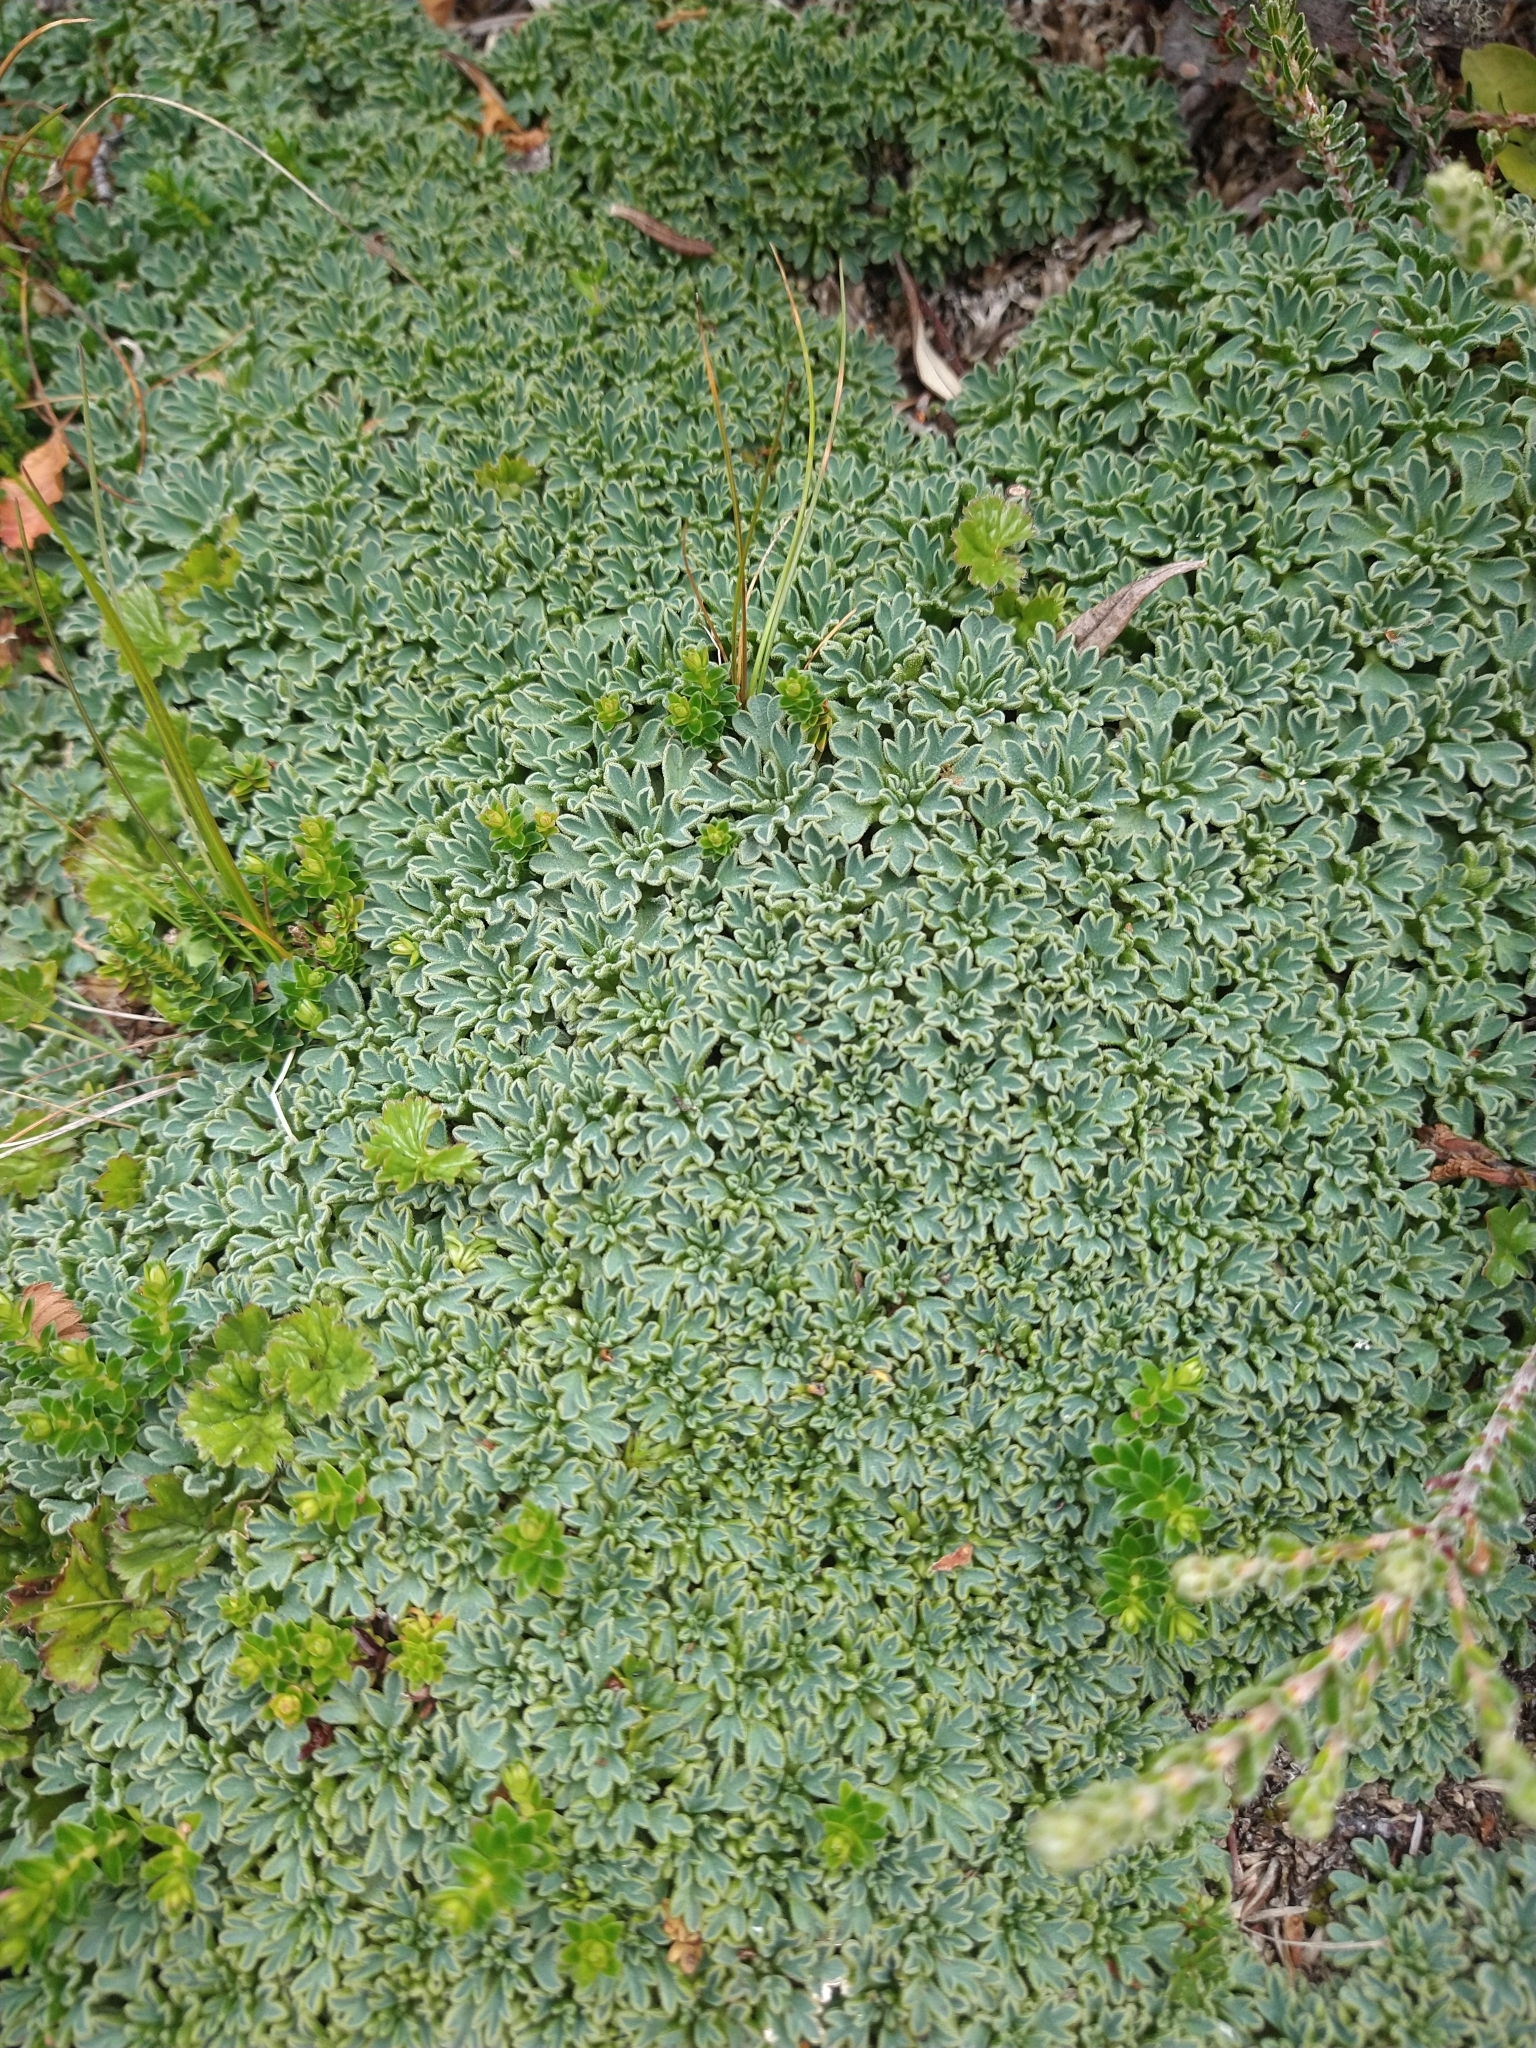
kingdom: Plantae
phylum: Tracheophyta
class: Magnoliopsida
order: Apiales
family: Apiaceae
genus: Bolax
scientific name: Bolax gummifera
